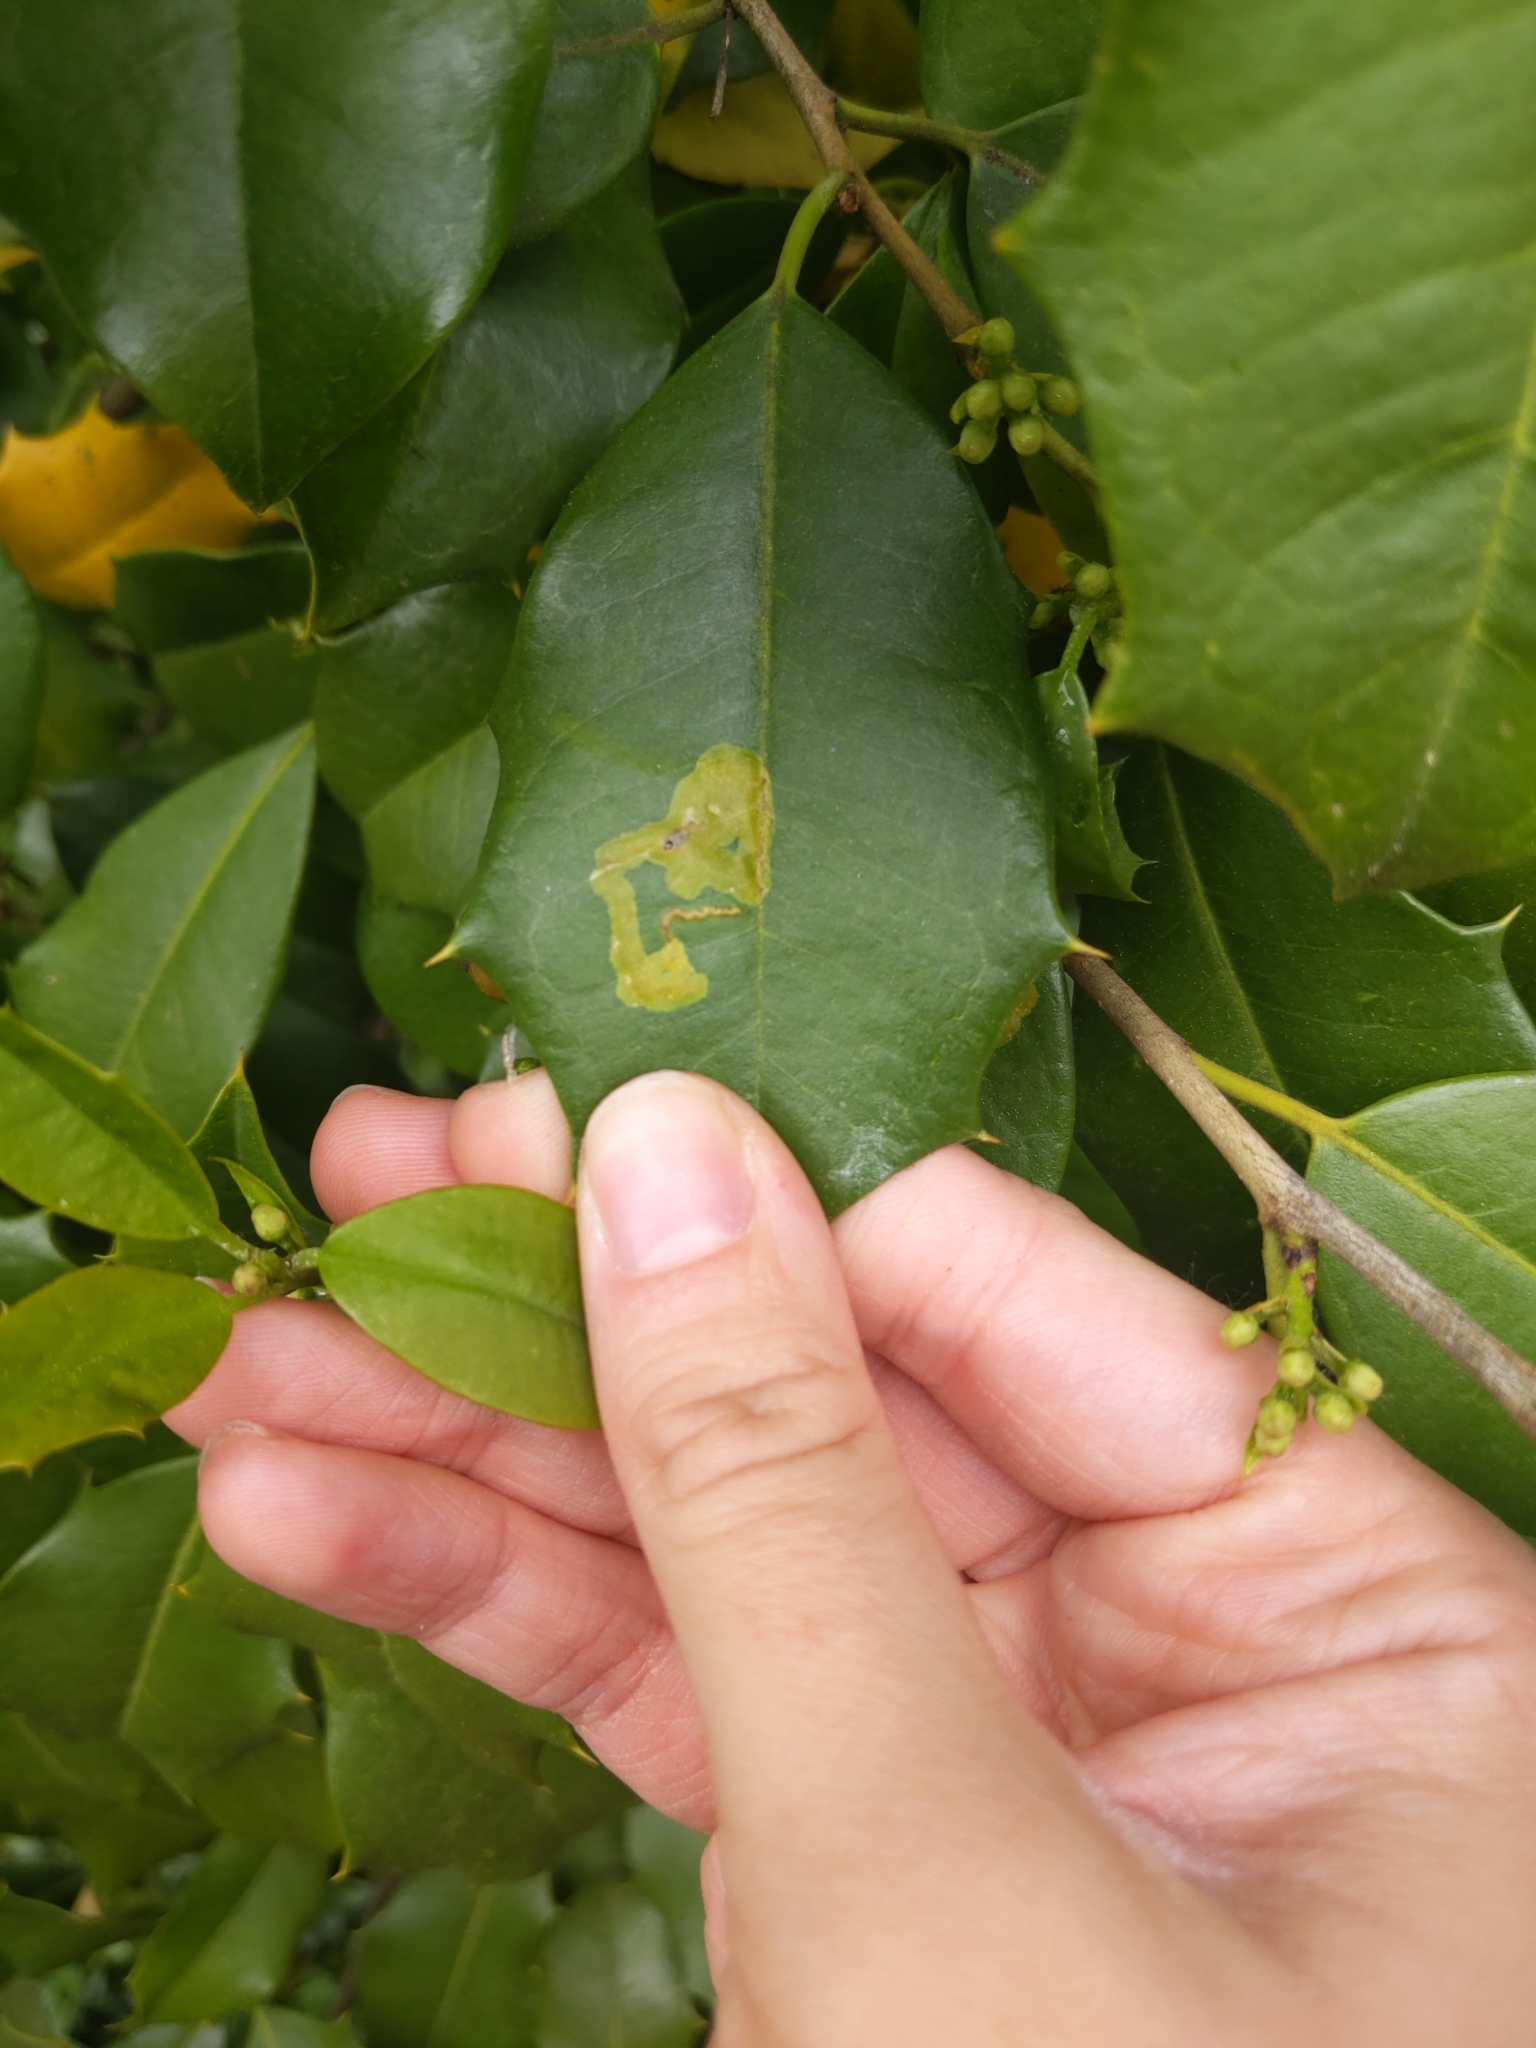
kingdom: Animalia
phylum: Arthropoda
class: Insecta
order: Diptera
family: Agromyzidae
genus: Phytomyza
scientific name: Phytomyza ilicicola
